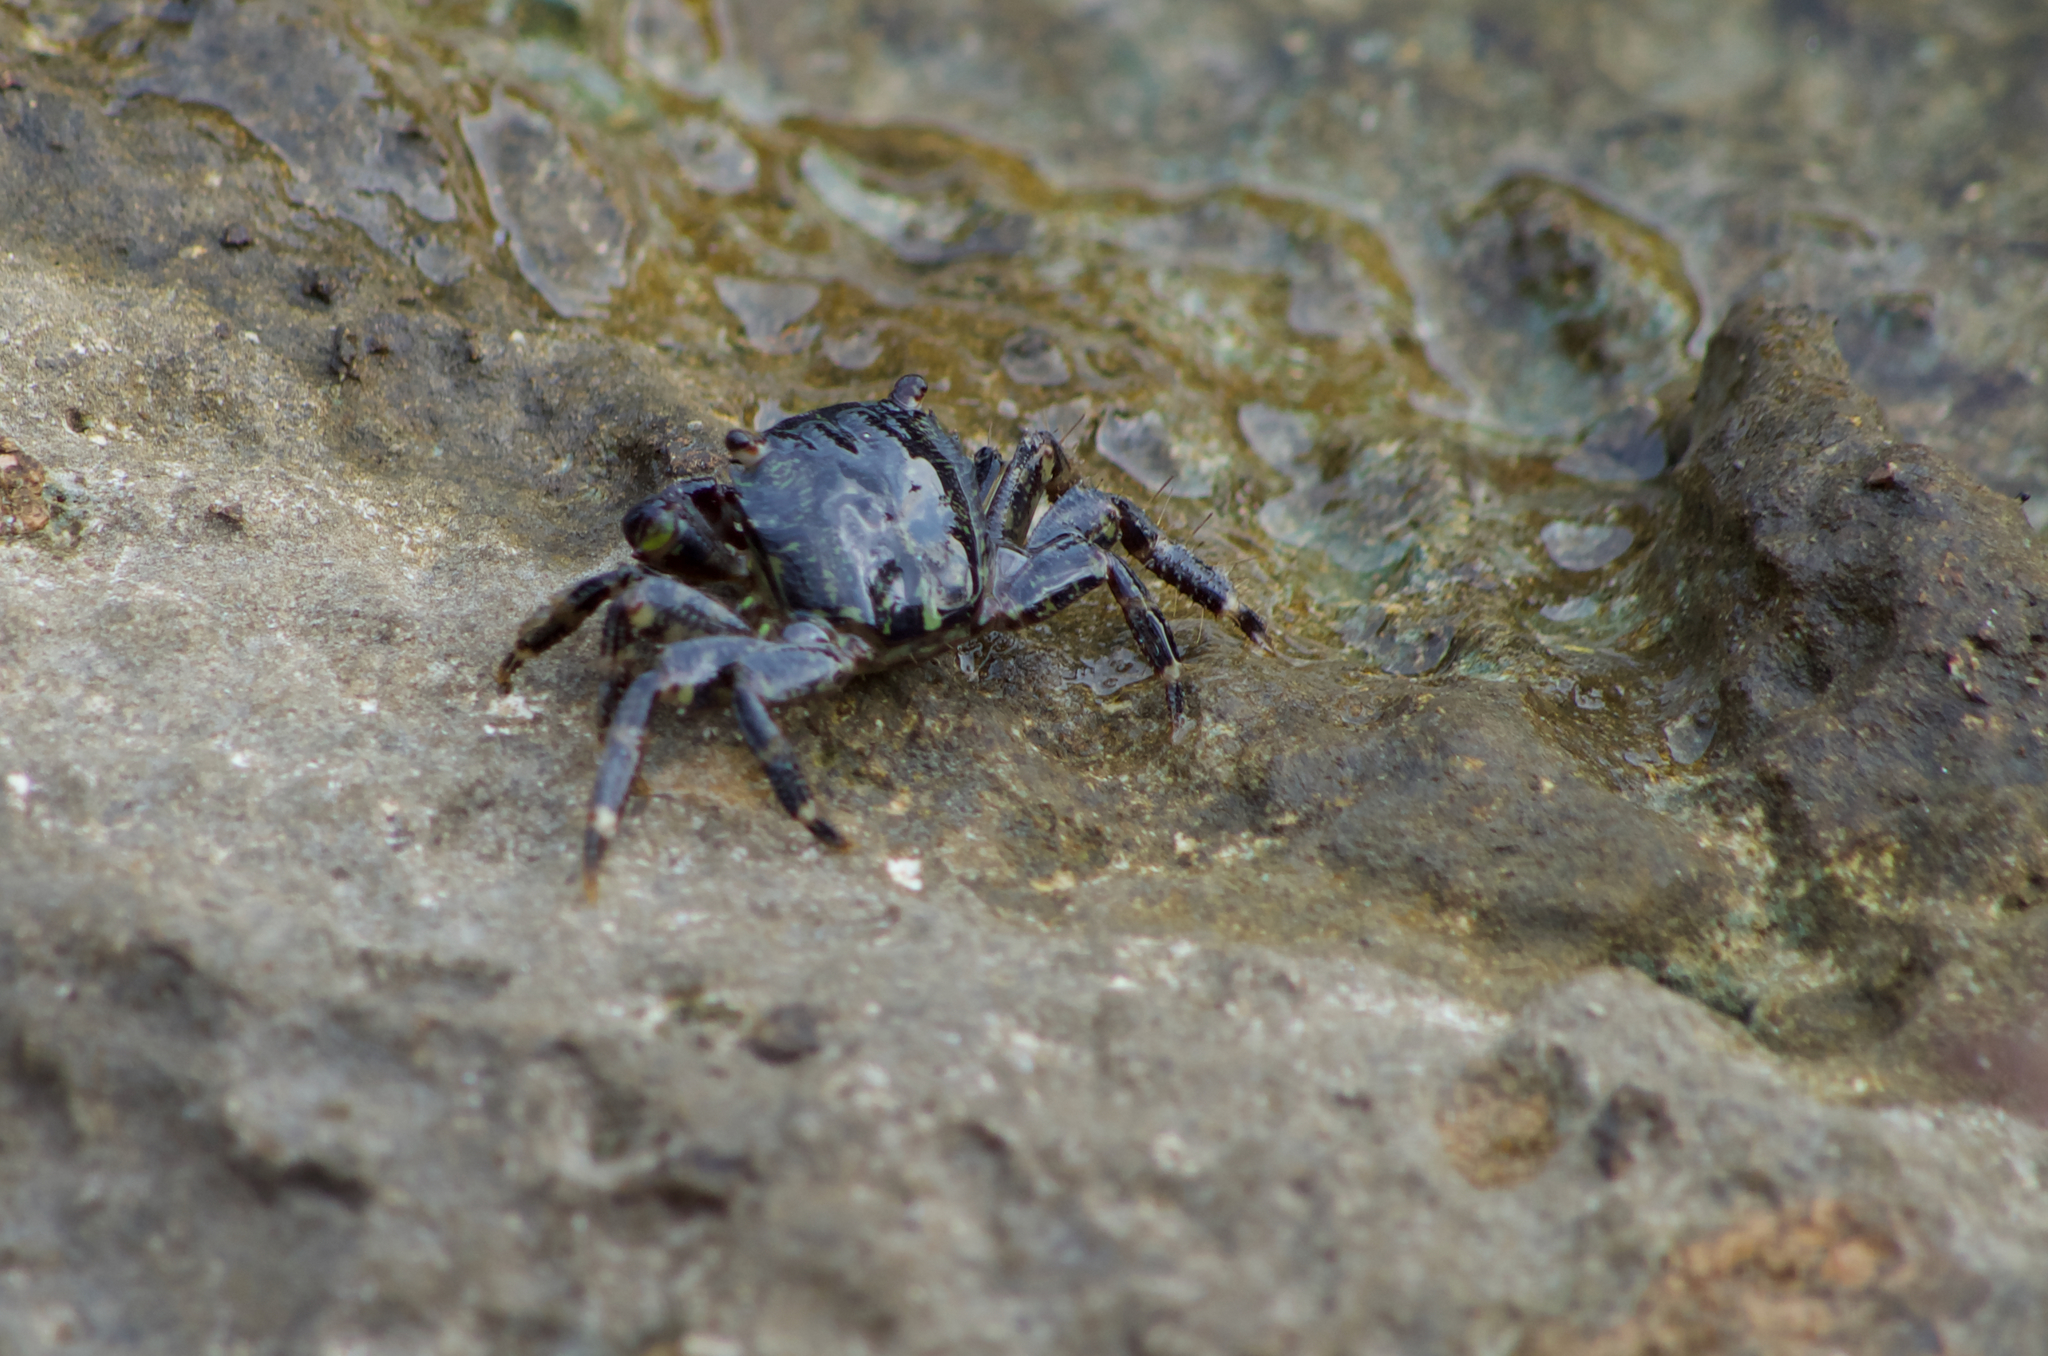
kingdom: Animalia
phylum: Arthropoda
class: Malacostraca
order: Decapoda
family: Grapsidae
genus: Pachygrapsus
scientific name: Pachygrapsus marmoratus
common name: Marbled rock crab
